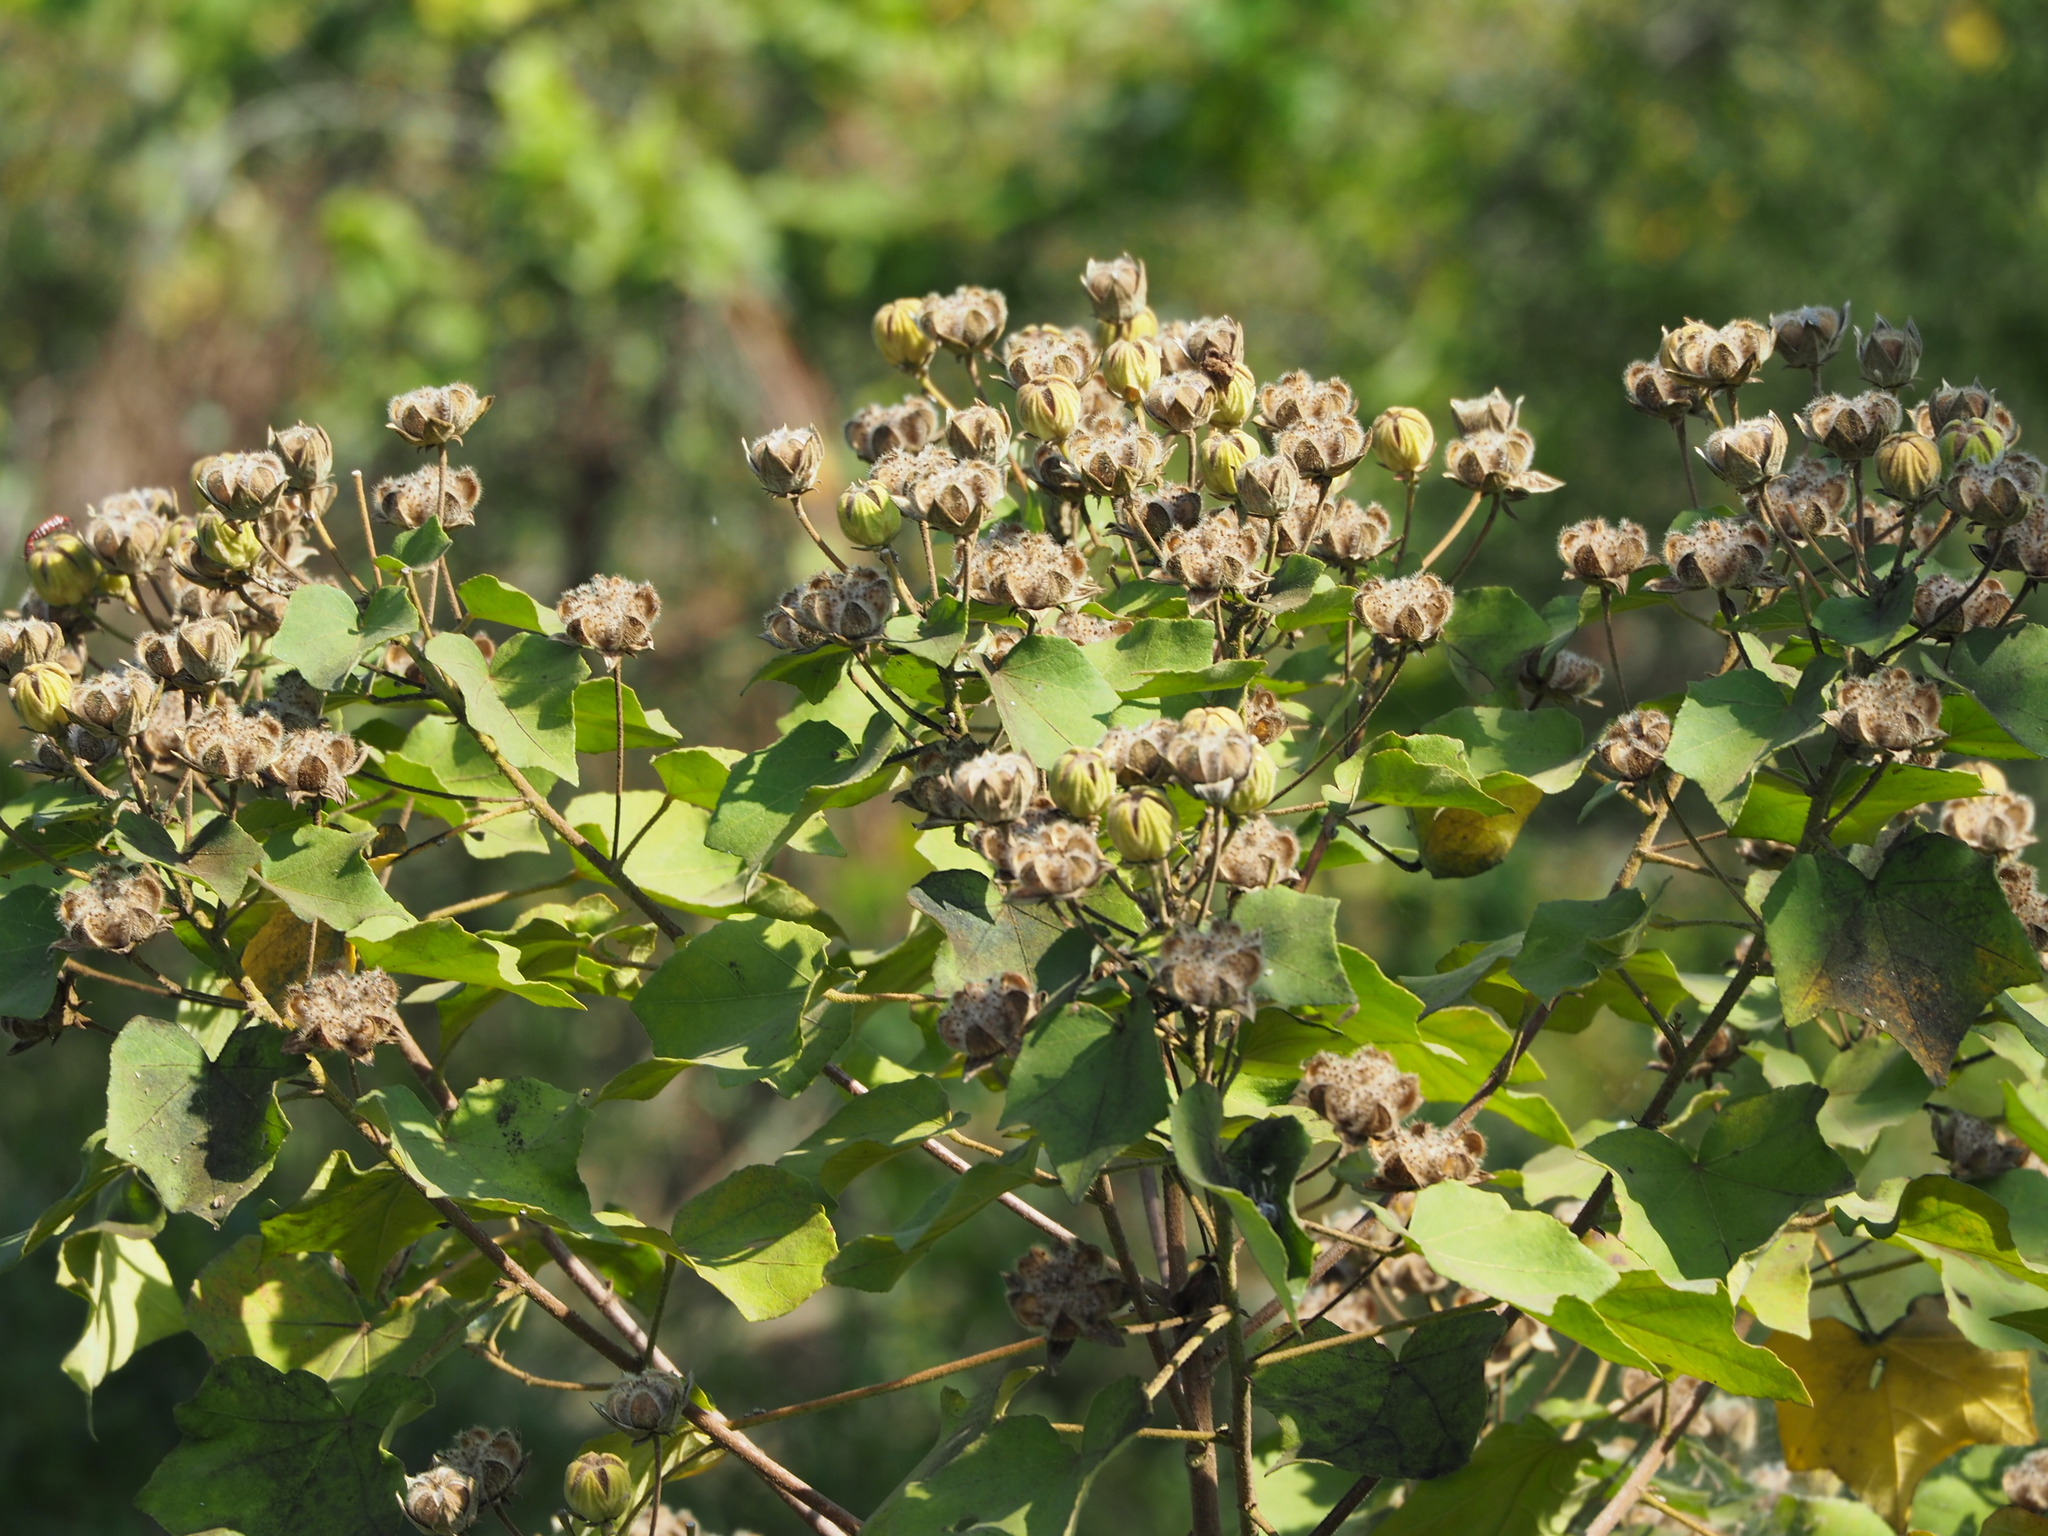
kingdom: Plantae
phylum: Tracheophyta
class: Magnoliopsida
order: Malvales
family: Malvaceae
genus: Hibiscus
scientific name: Hibiscus taiwanensis
